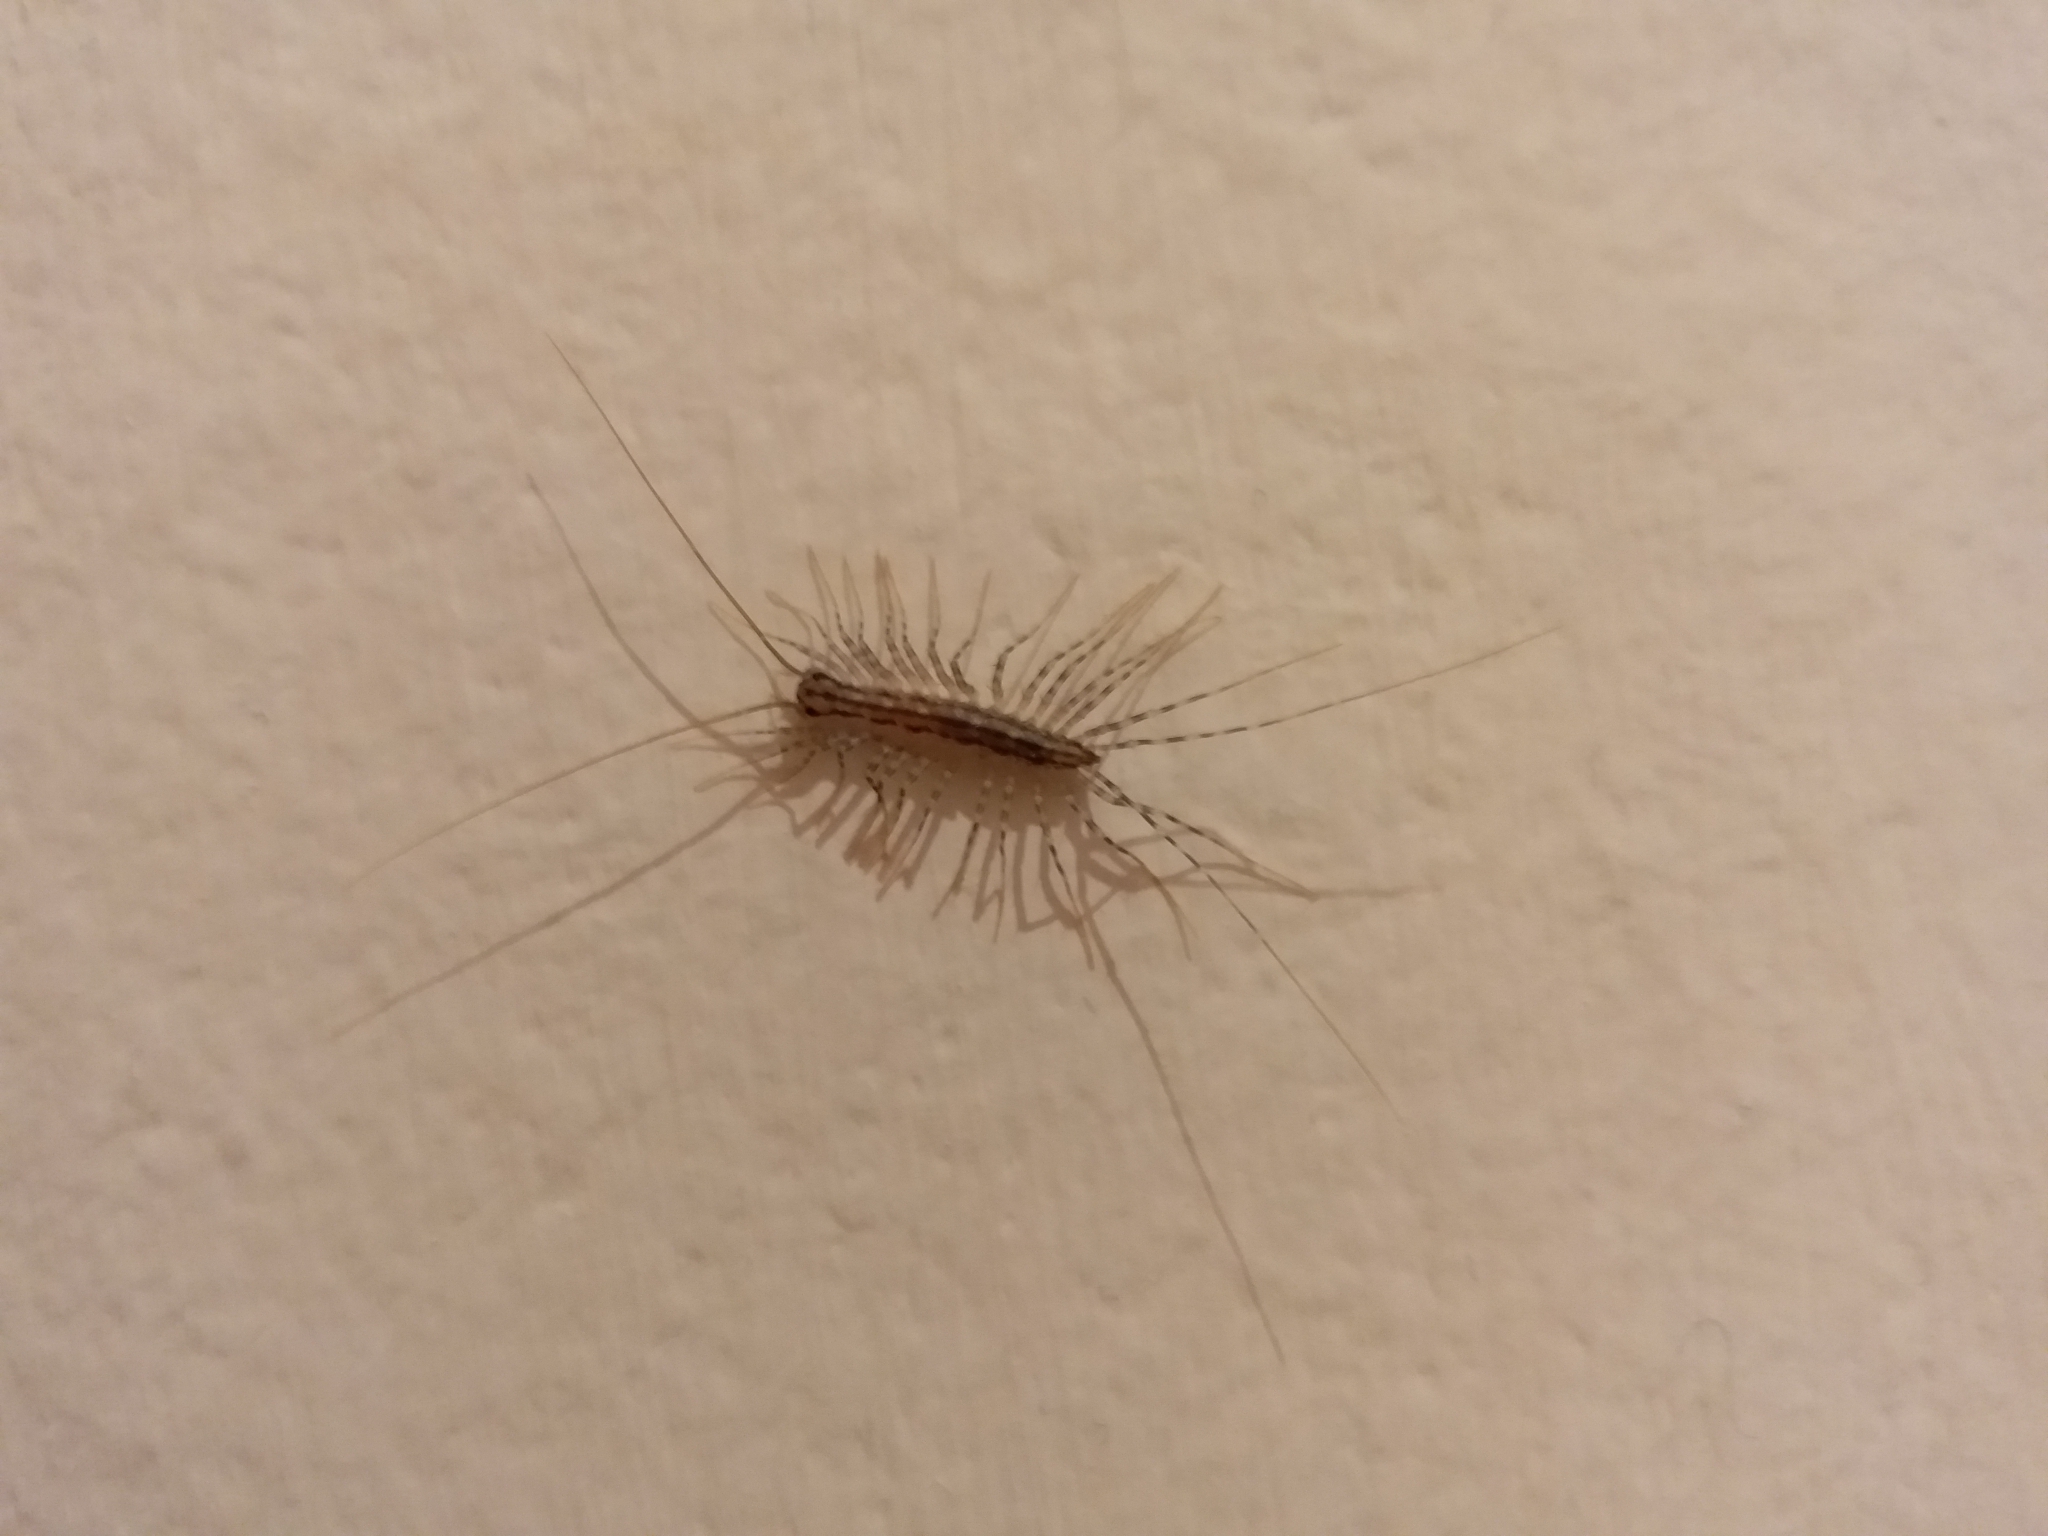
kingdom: Animalia
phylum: Arthropoda
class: Chilopoda
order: Scutigeromorpha
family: Scutigeridae
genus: Scutigera
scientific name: Scutigera coleoptrata
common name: House centipede
